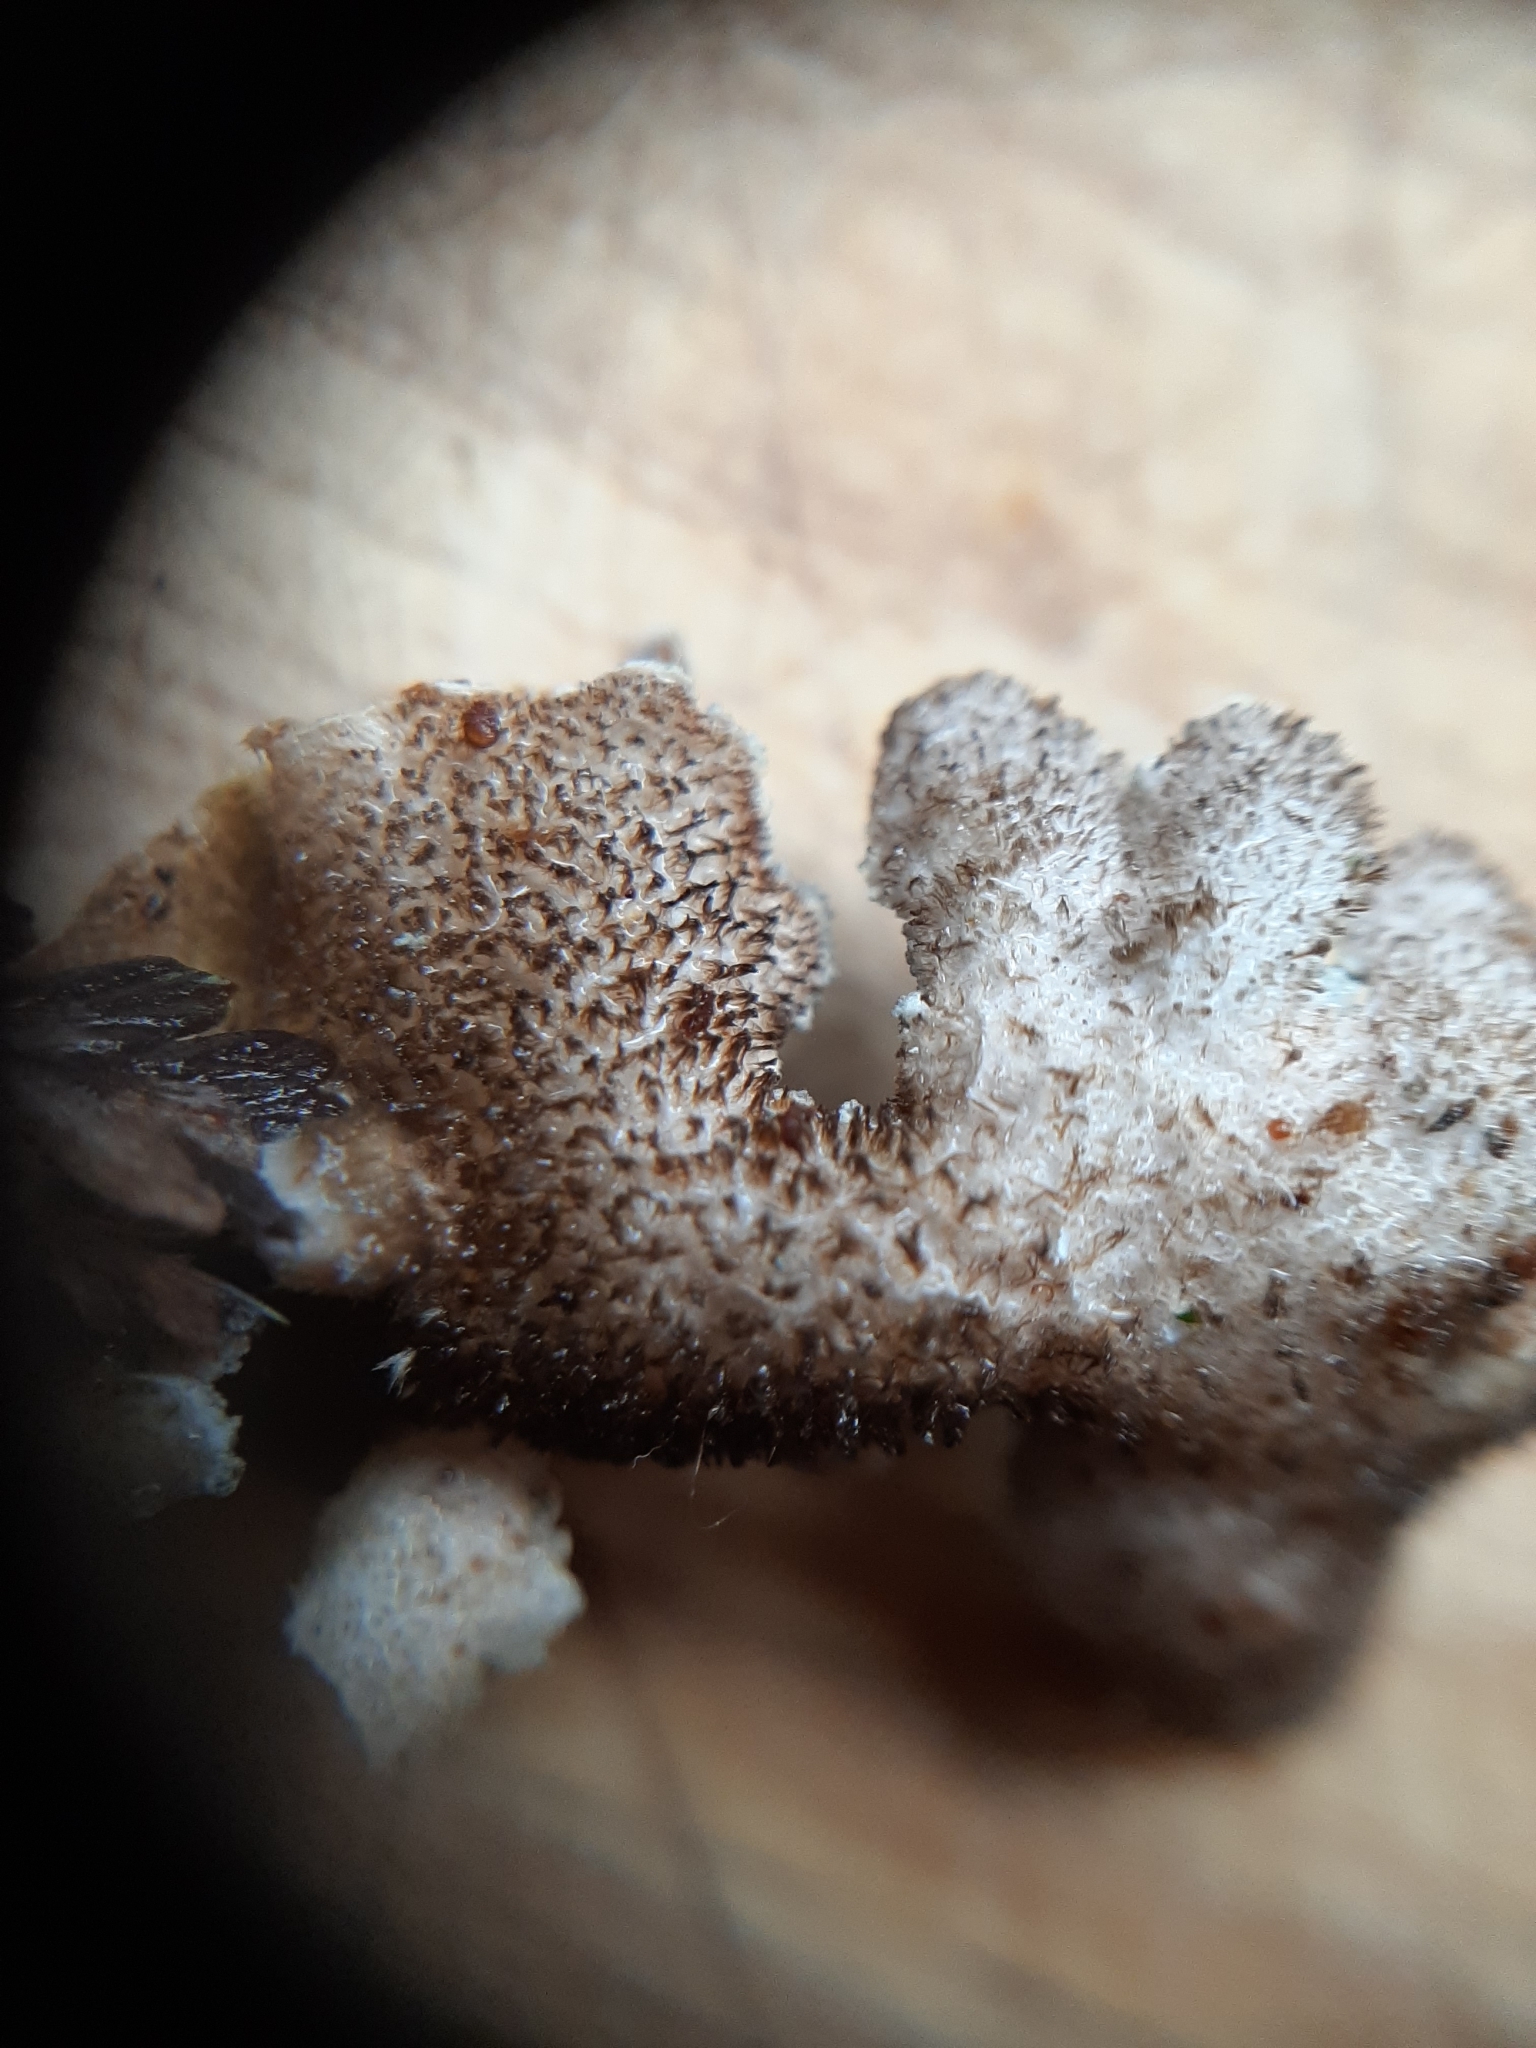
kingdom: Fungi
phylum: Ascomycota
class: Lecanoromycetes
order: Peltigerales
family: Lobariaceae
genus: Pseudocyphellaria
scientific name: Pseudocyphellaria intricata
